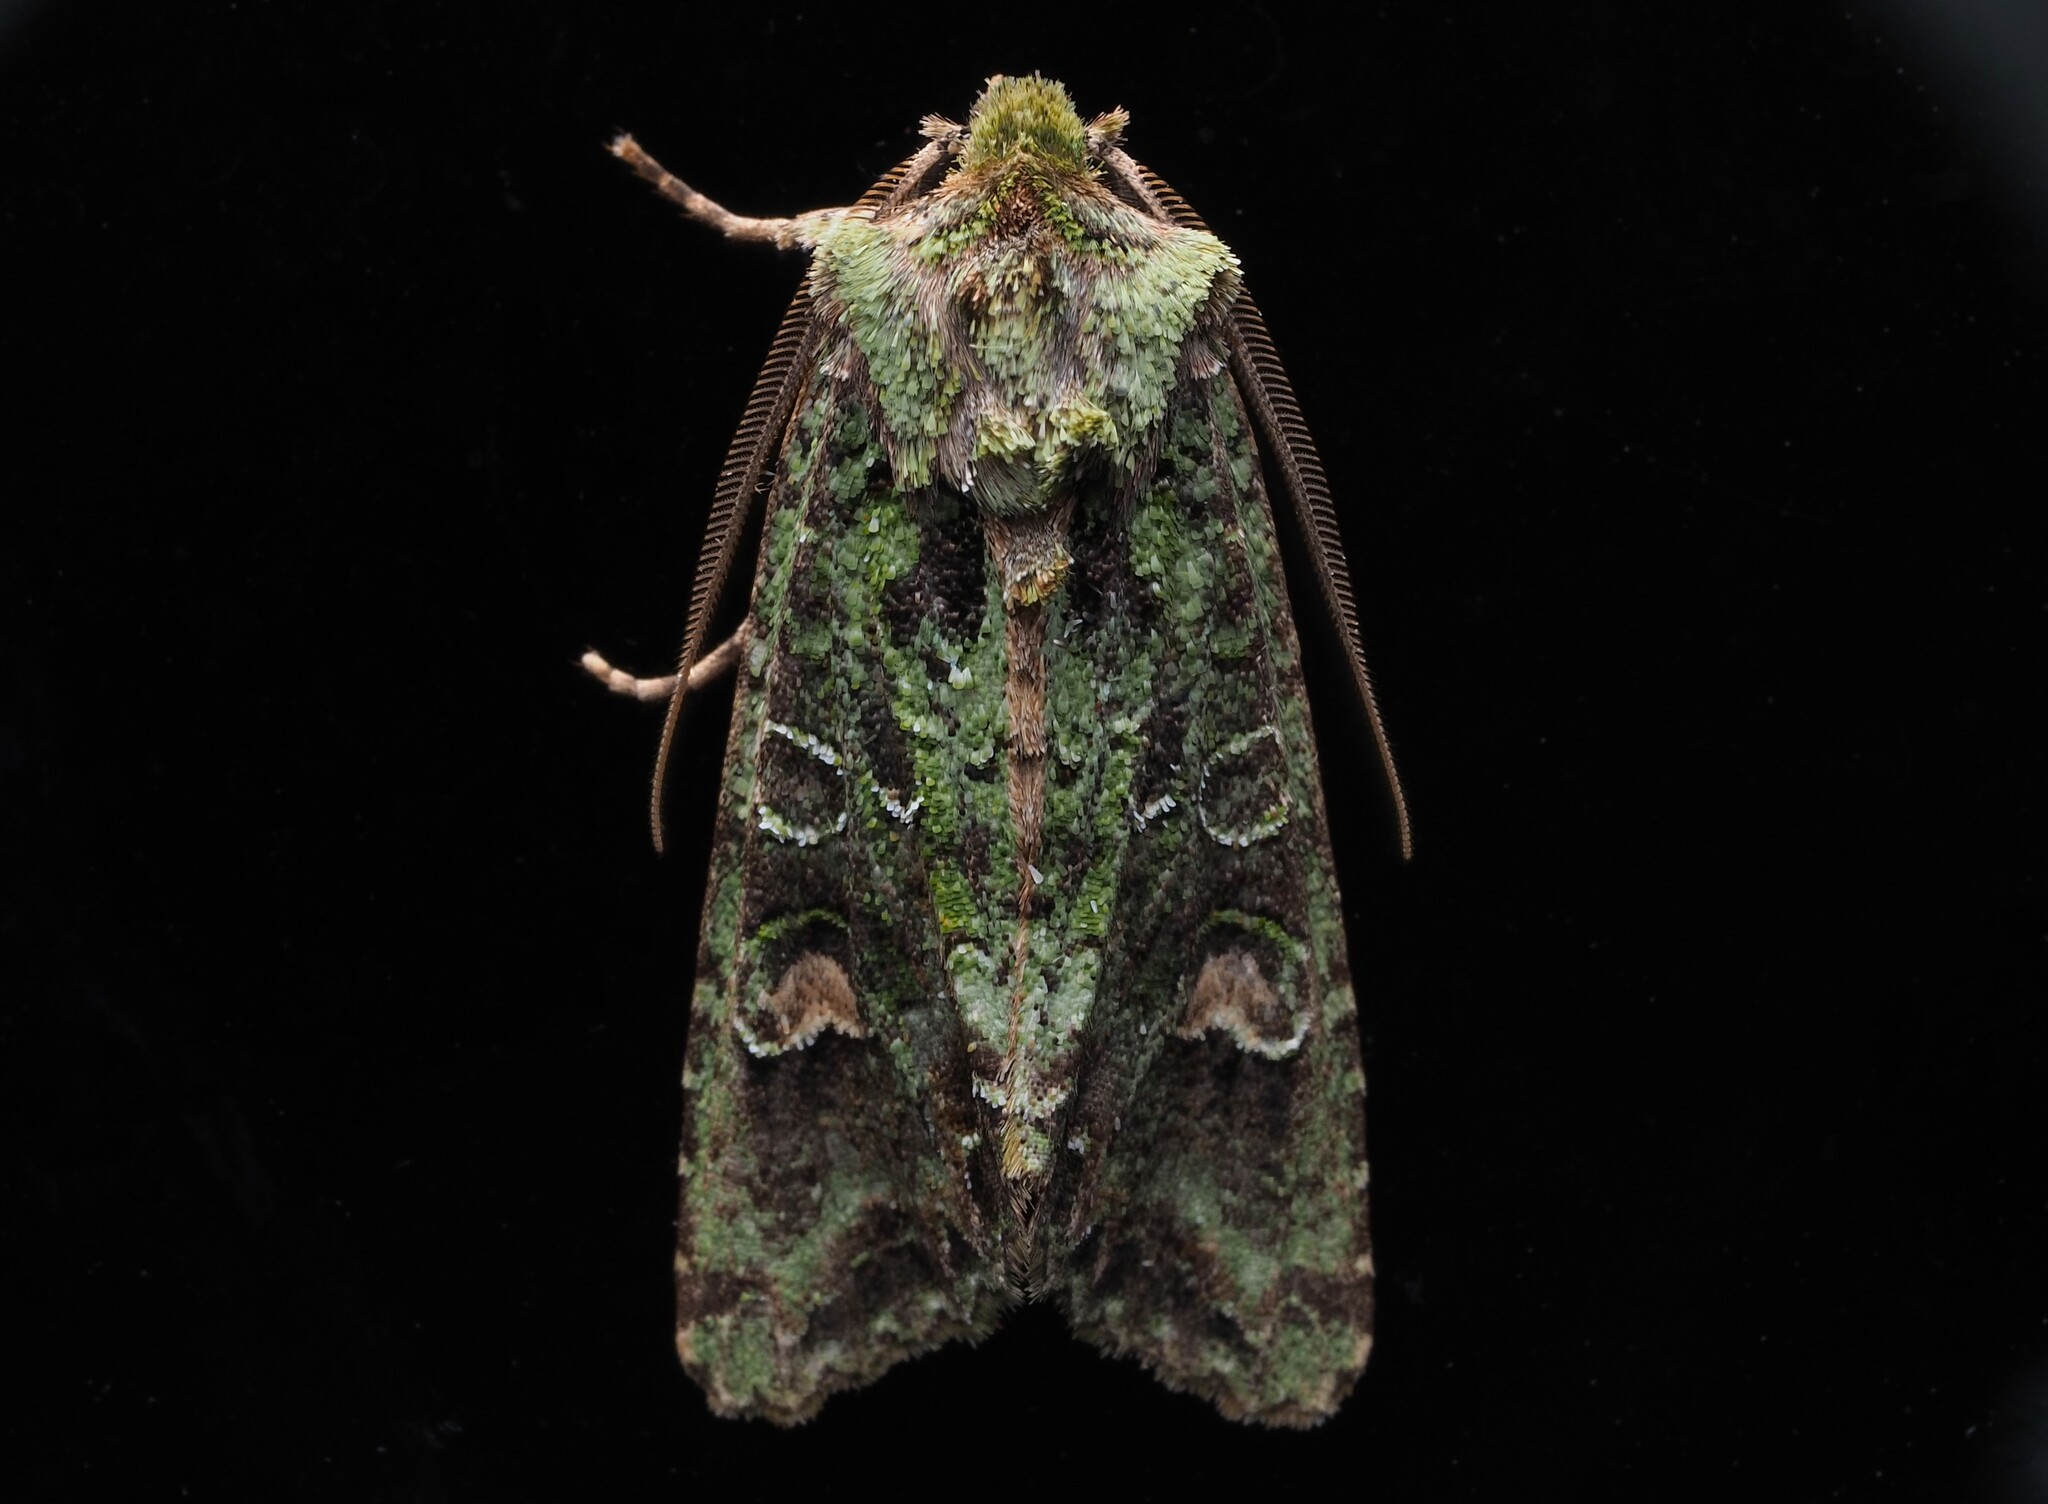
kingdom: Animalia
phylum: Arthropoda
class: Insecta
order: Lepidoptera
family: Noctuidae
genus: Ichneutica
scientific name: Ichneutica
